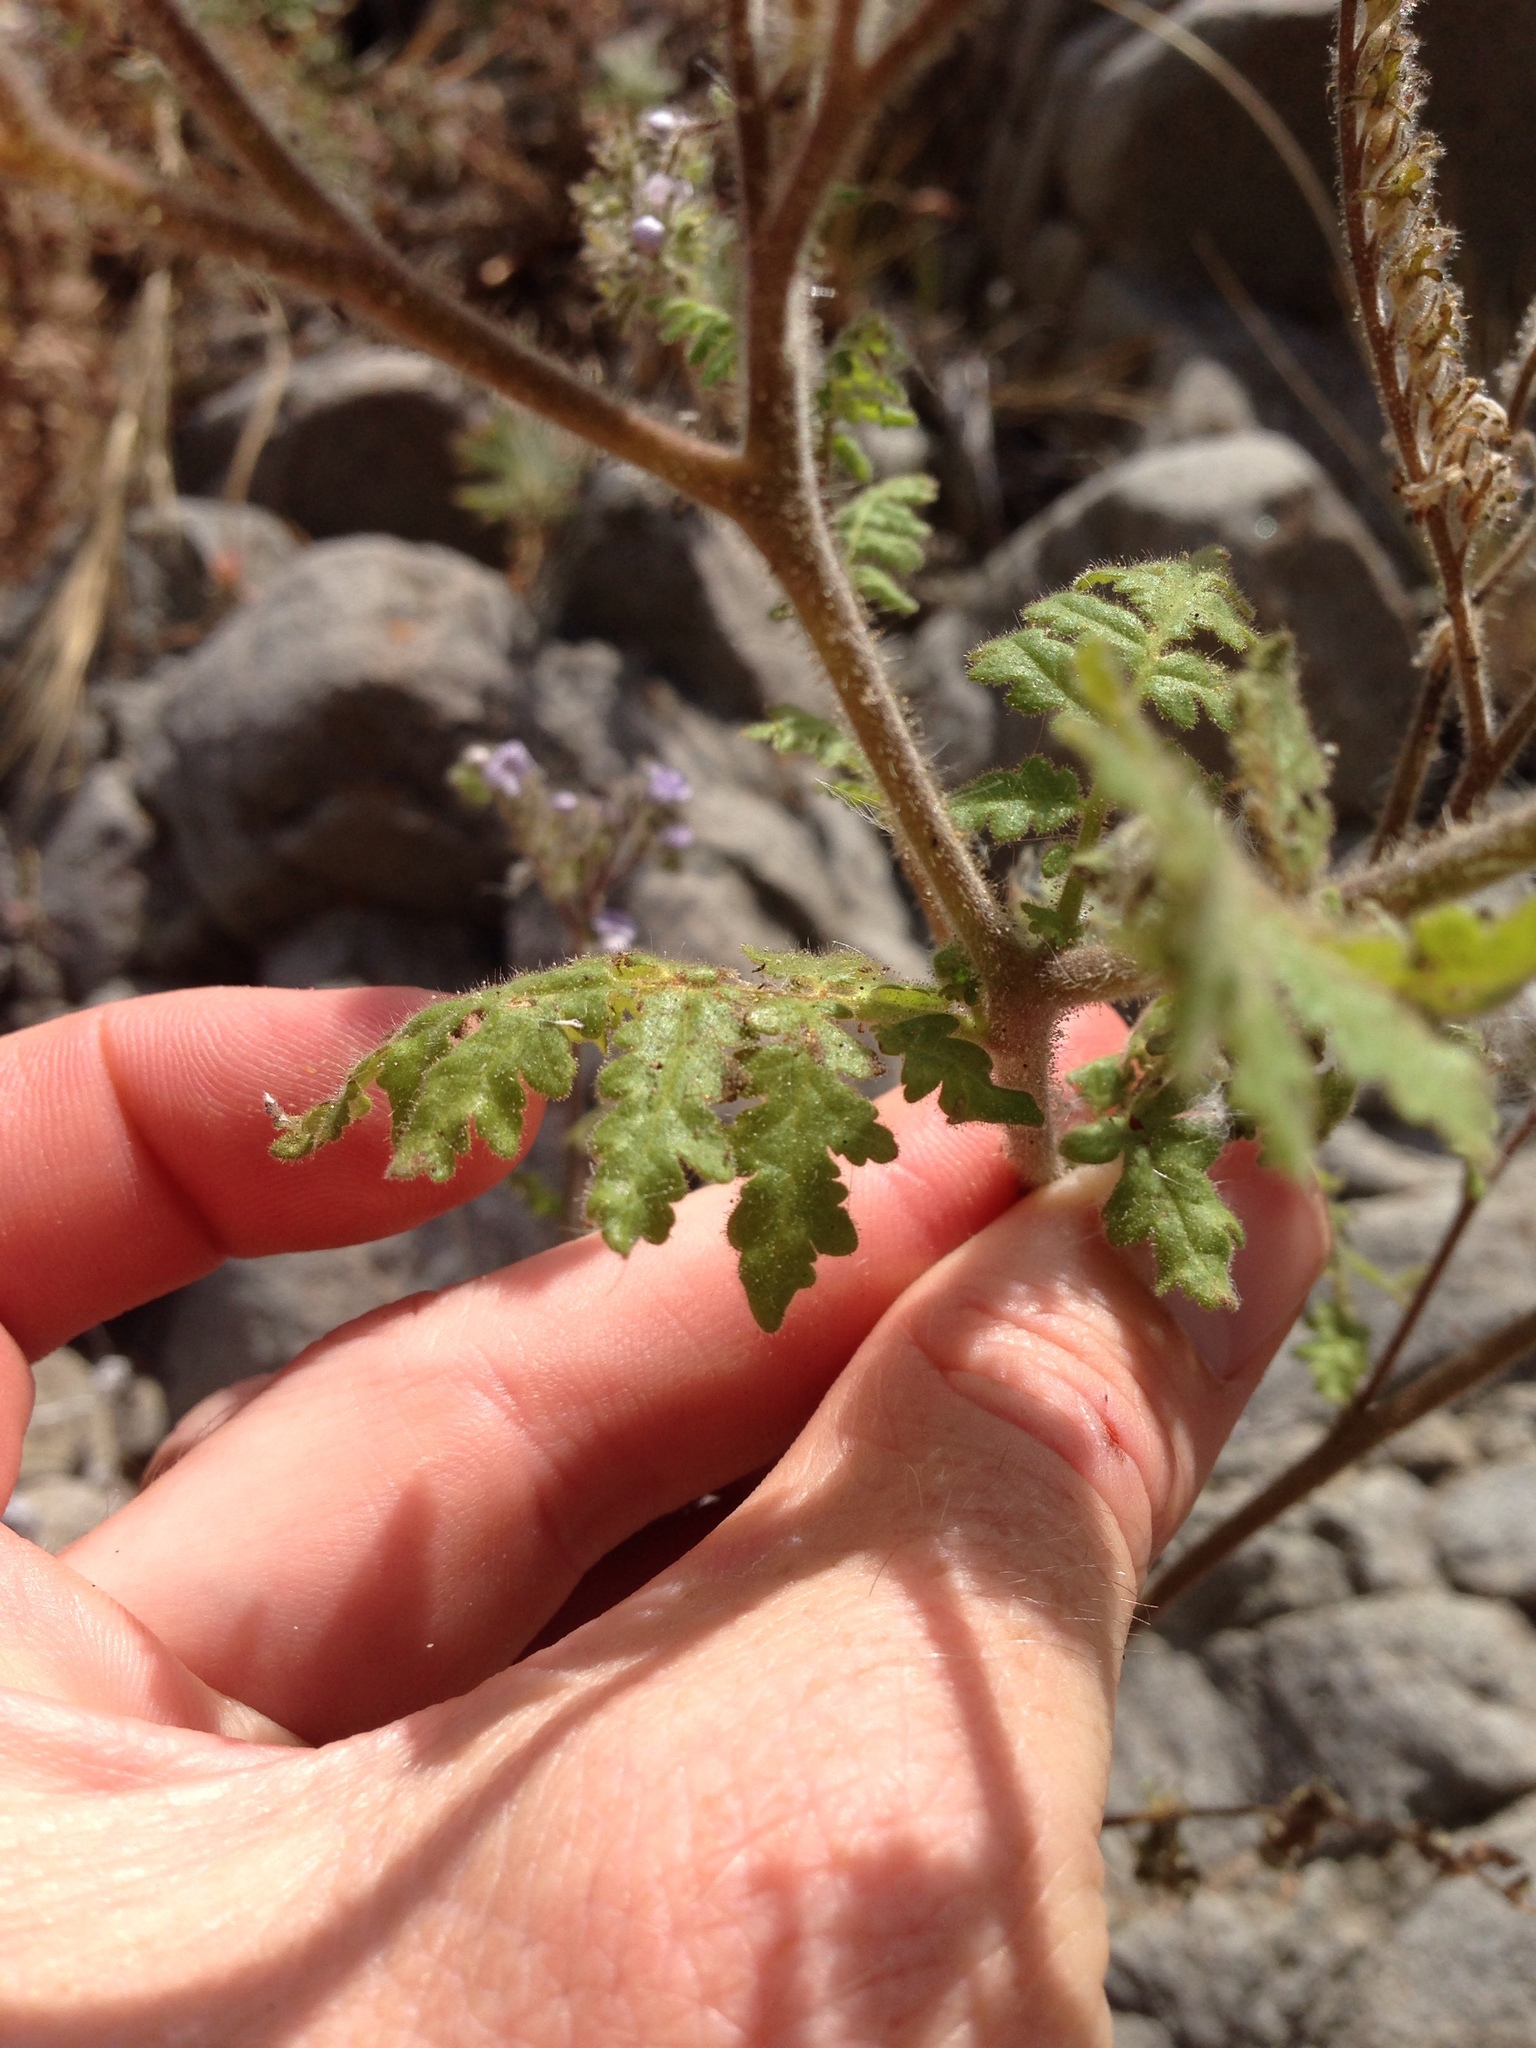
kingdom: Plantae
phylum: Tracheophyta
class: Magnoliopsida
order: Boraginales
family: Hydrophyllaceae
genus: Phacelia
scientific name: Phacelia floribunda
